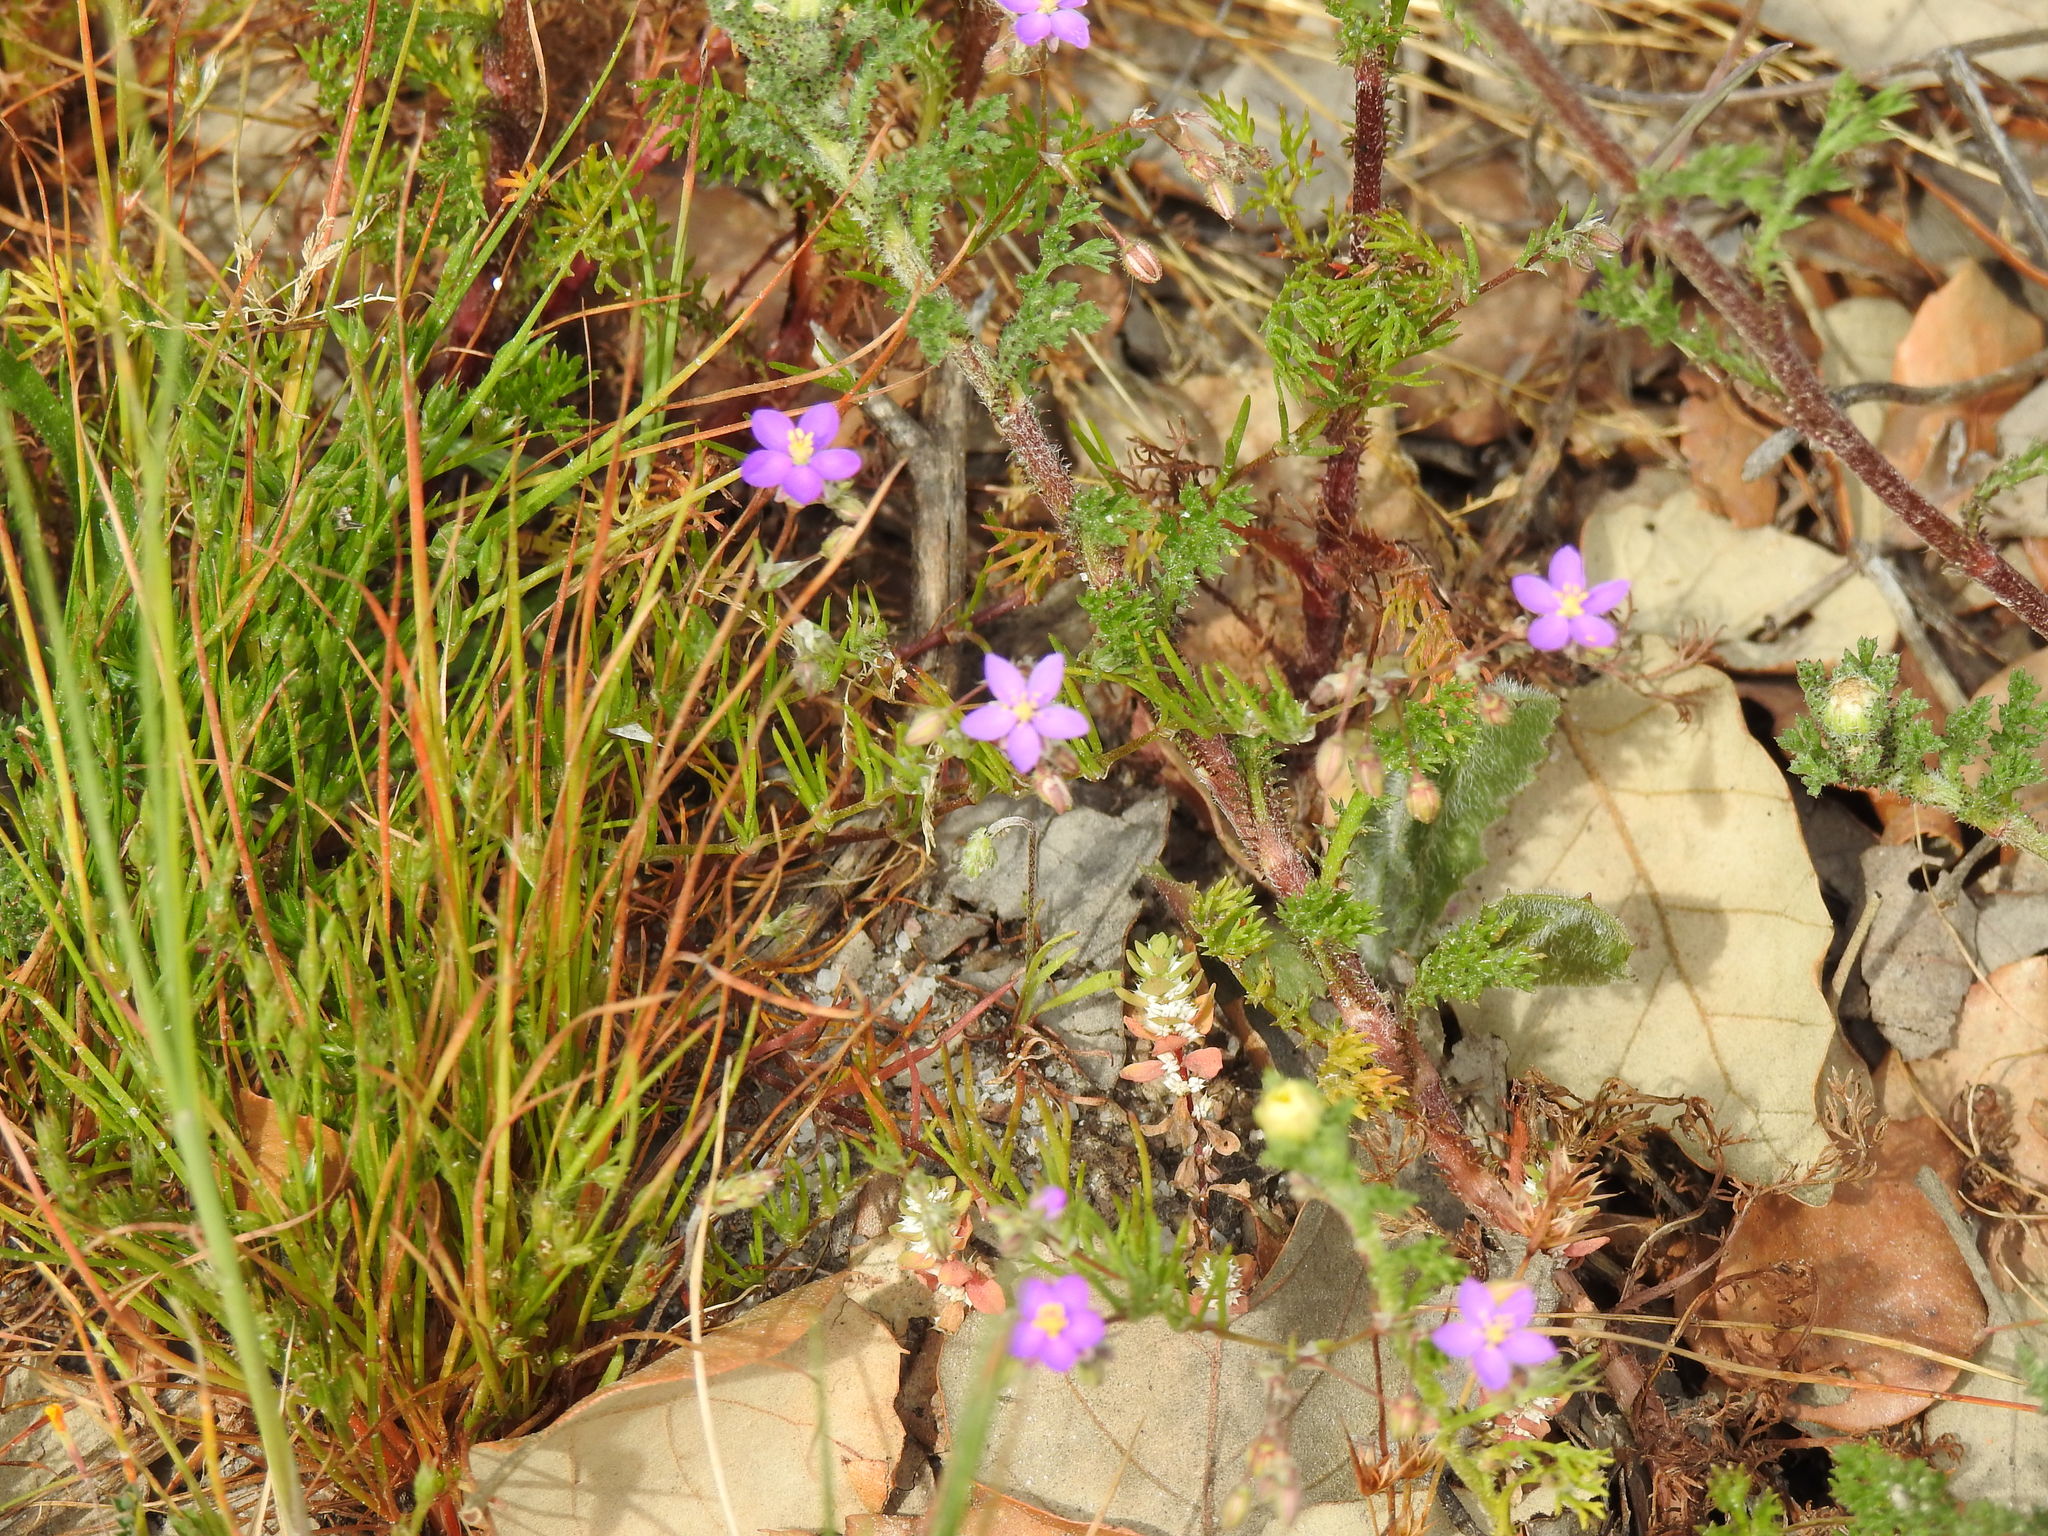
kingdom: Plantae
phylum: Tracheophyta
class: Magnoliopsida
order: Caryophyllales
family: Caryophyllaceae
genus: Illecebrum
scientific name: Illecebrum verticillatum
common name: Coral necklace
